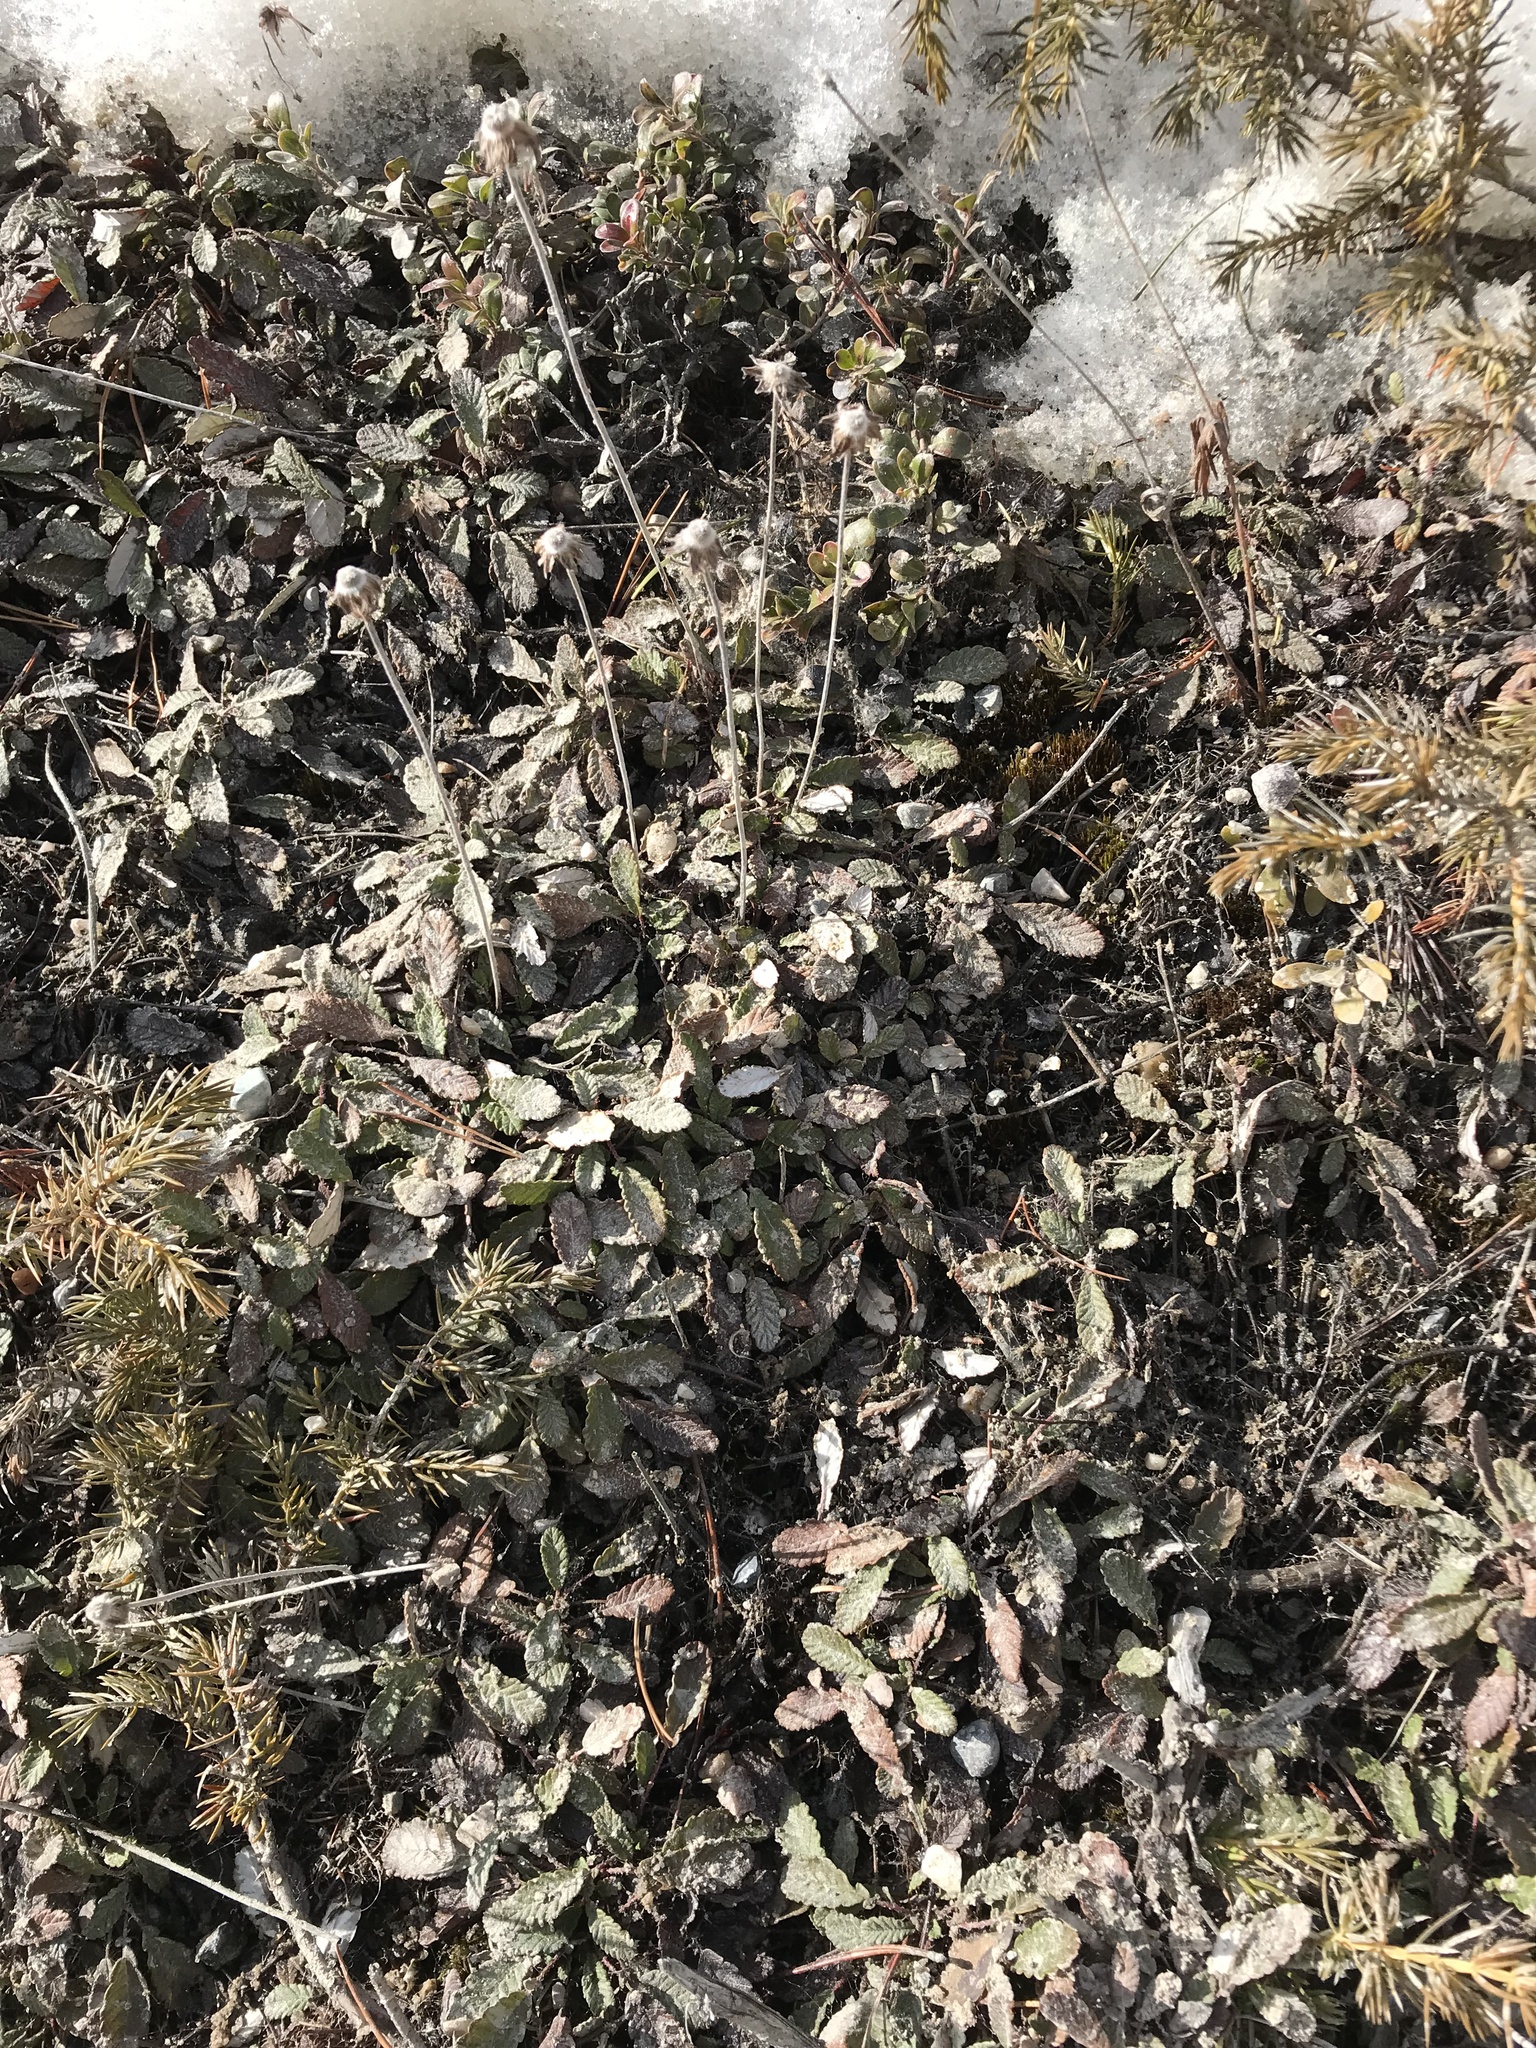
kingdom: Plantae
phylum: Tracheophyta
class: Magnoliopsida
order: Rosales
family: Rosaceae
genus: Dryas
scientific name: Dryas drummondii
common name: Drummond's dryad
